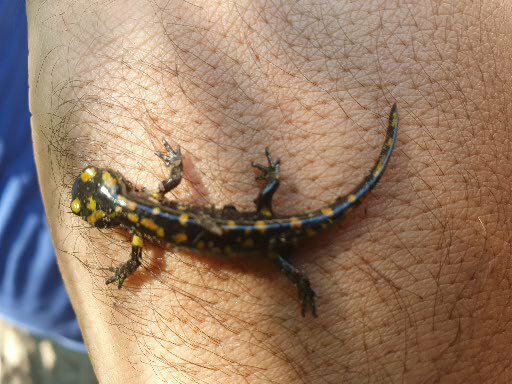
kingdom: Animalia
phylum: Chordata
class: Amphibia
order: Caudata
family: Salamandridae
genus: Salamandra
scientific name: Salamandra algira
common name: North african fire salamander
